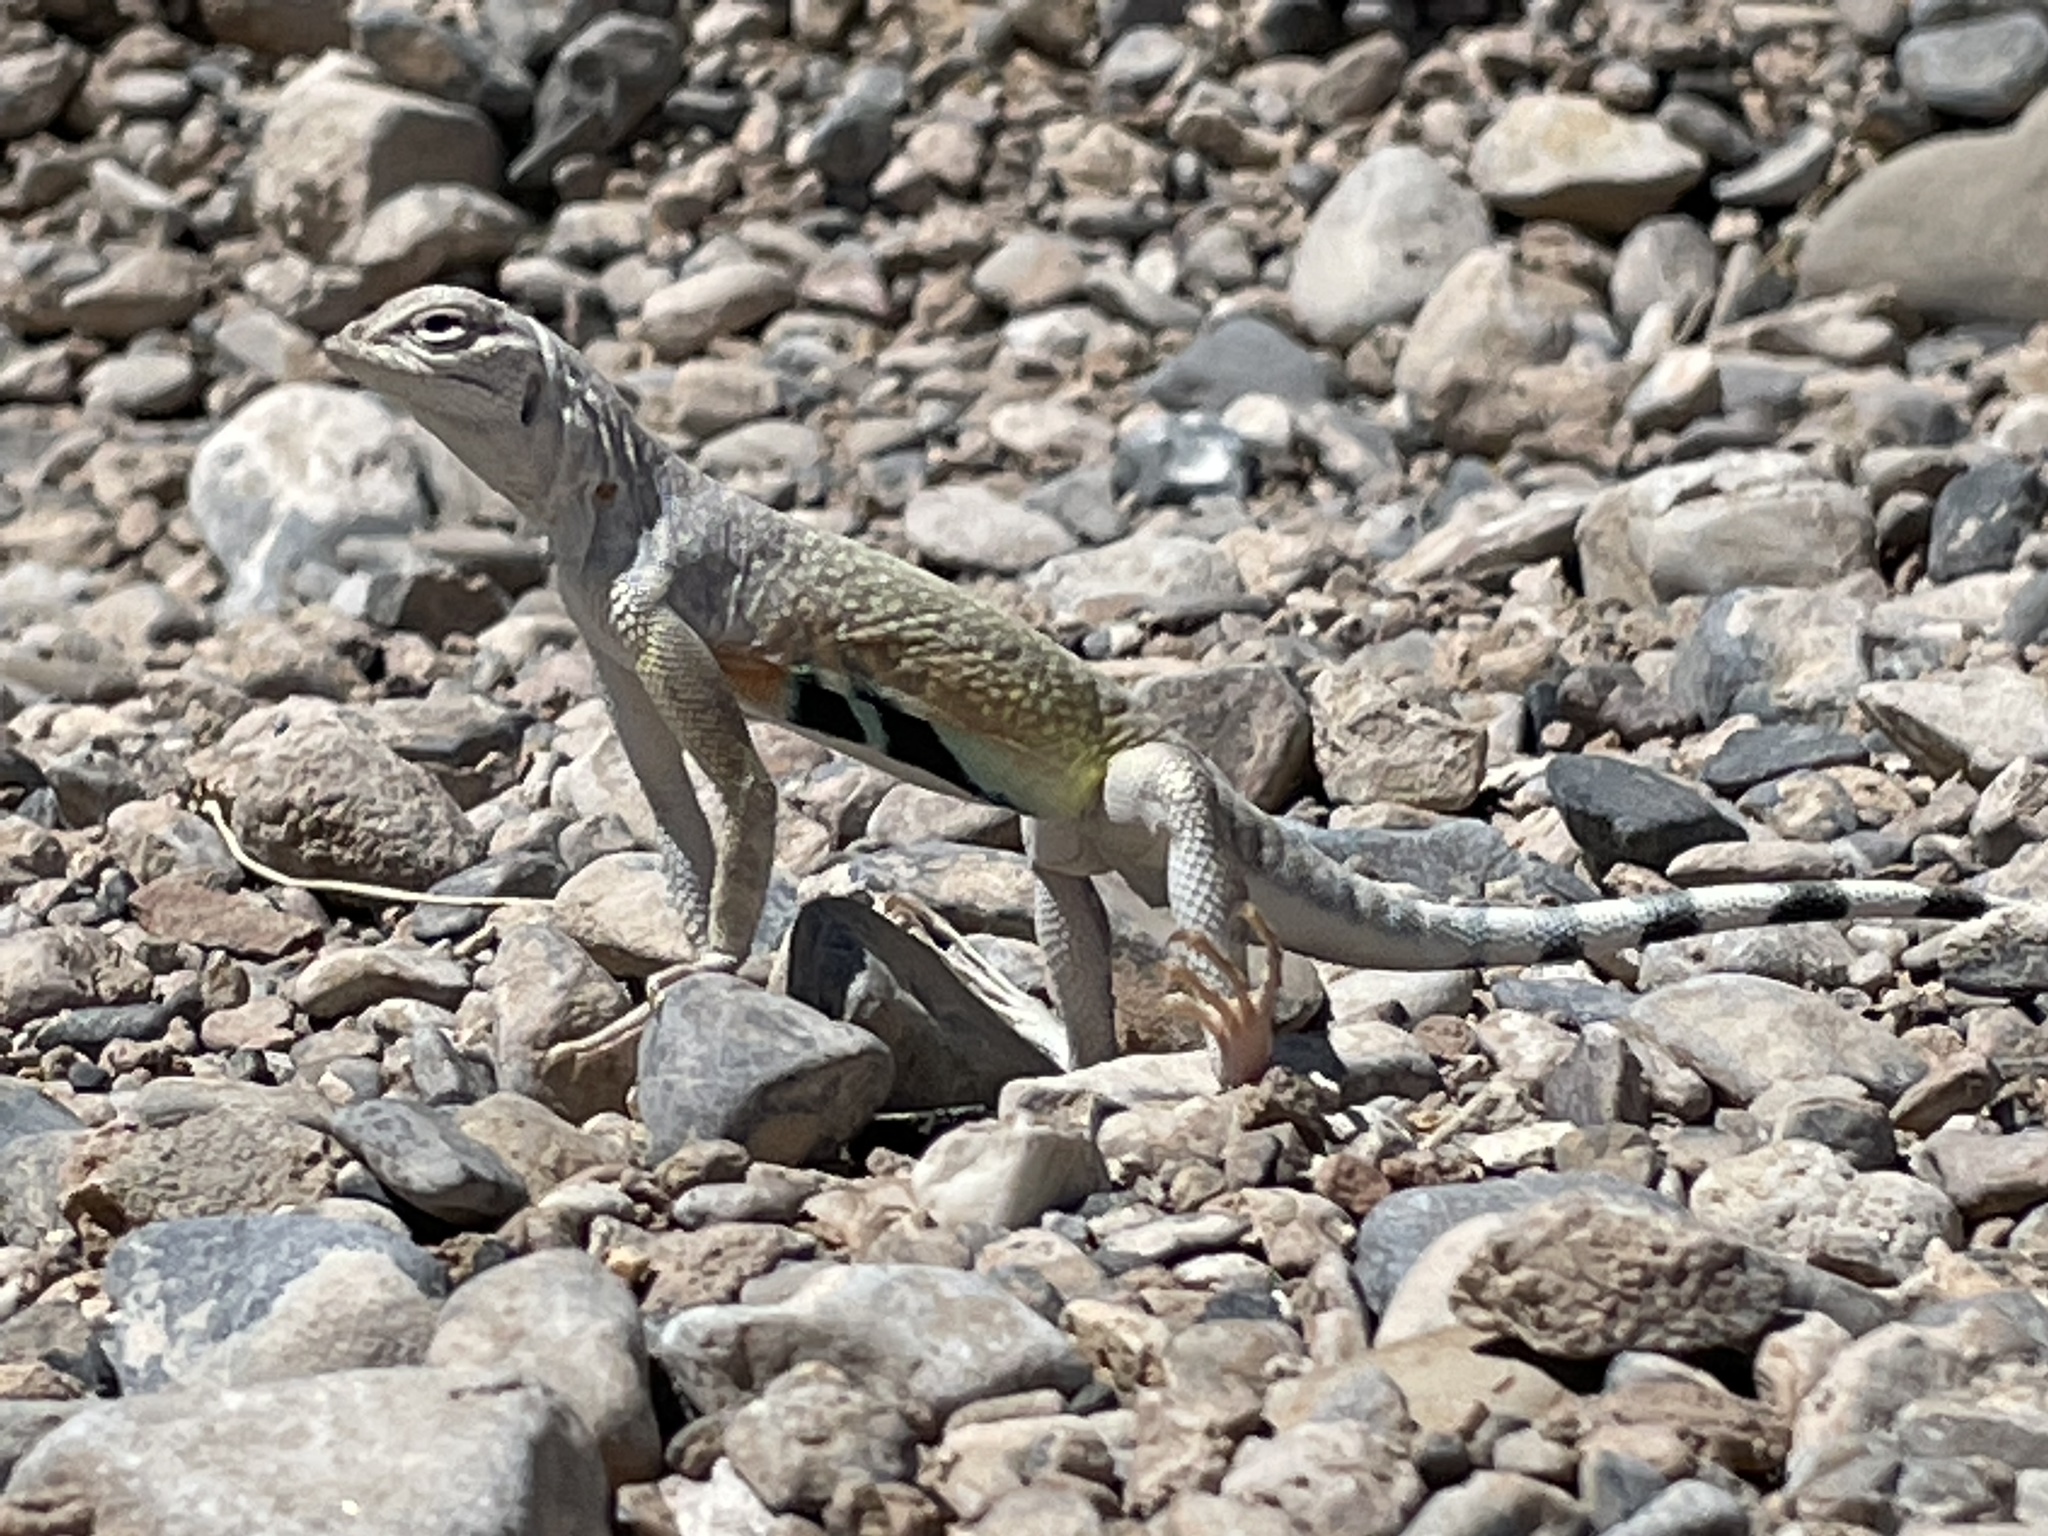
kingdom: Animalia
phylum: Chordata
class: Squamata
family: Phrynosomatidae
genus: Callisaurus
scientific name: Callisaurus draconoides
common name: Zebra-tailed lizard
